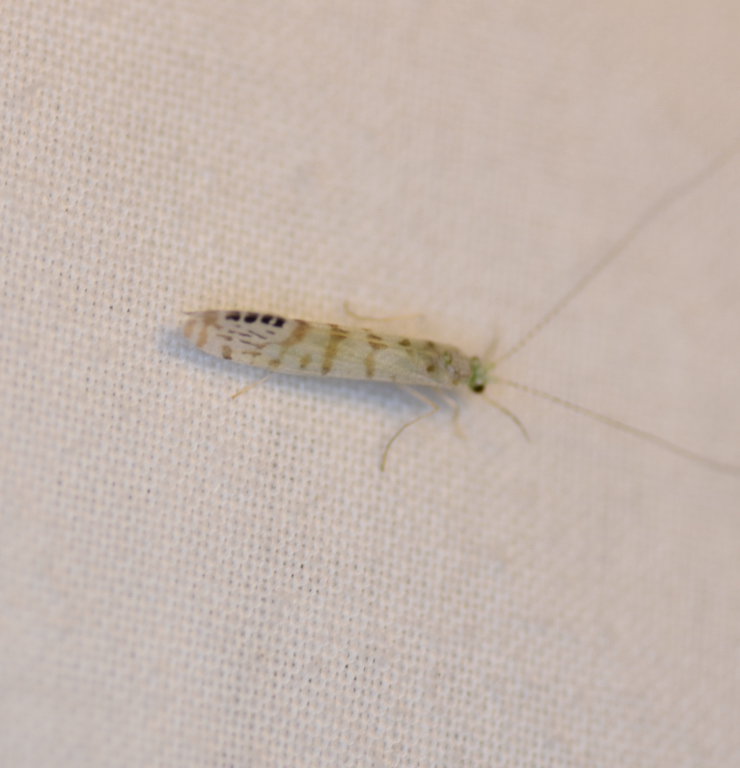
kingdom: Animalia
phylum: Arthropoda
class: Insecta
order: Trichoptera
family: Leptoceridae
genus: Nectopsyche
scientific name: Nectopsyche exquisita
